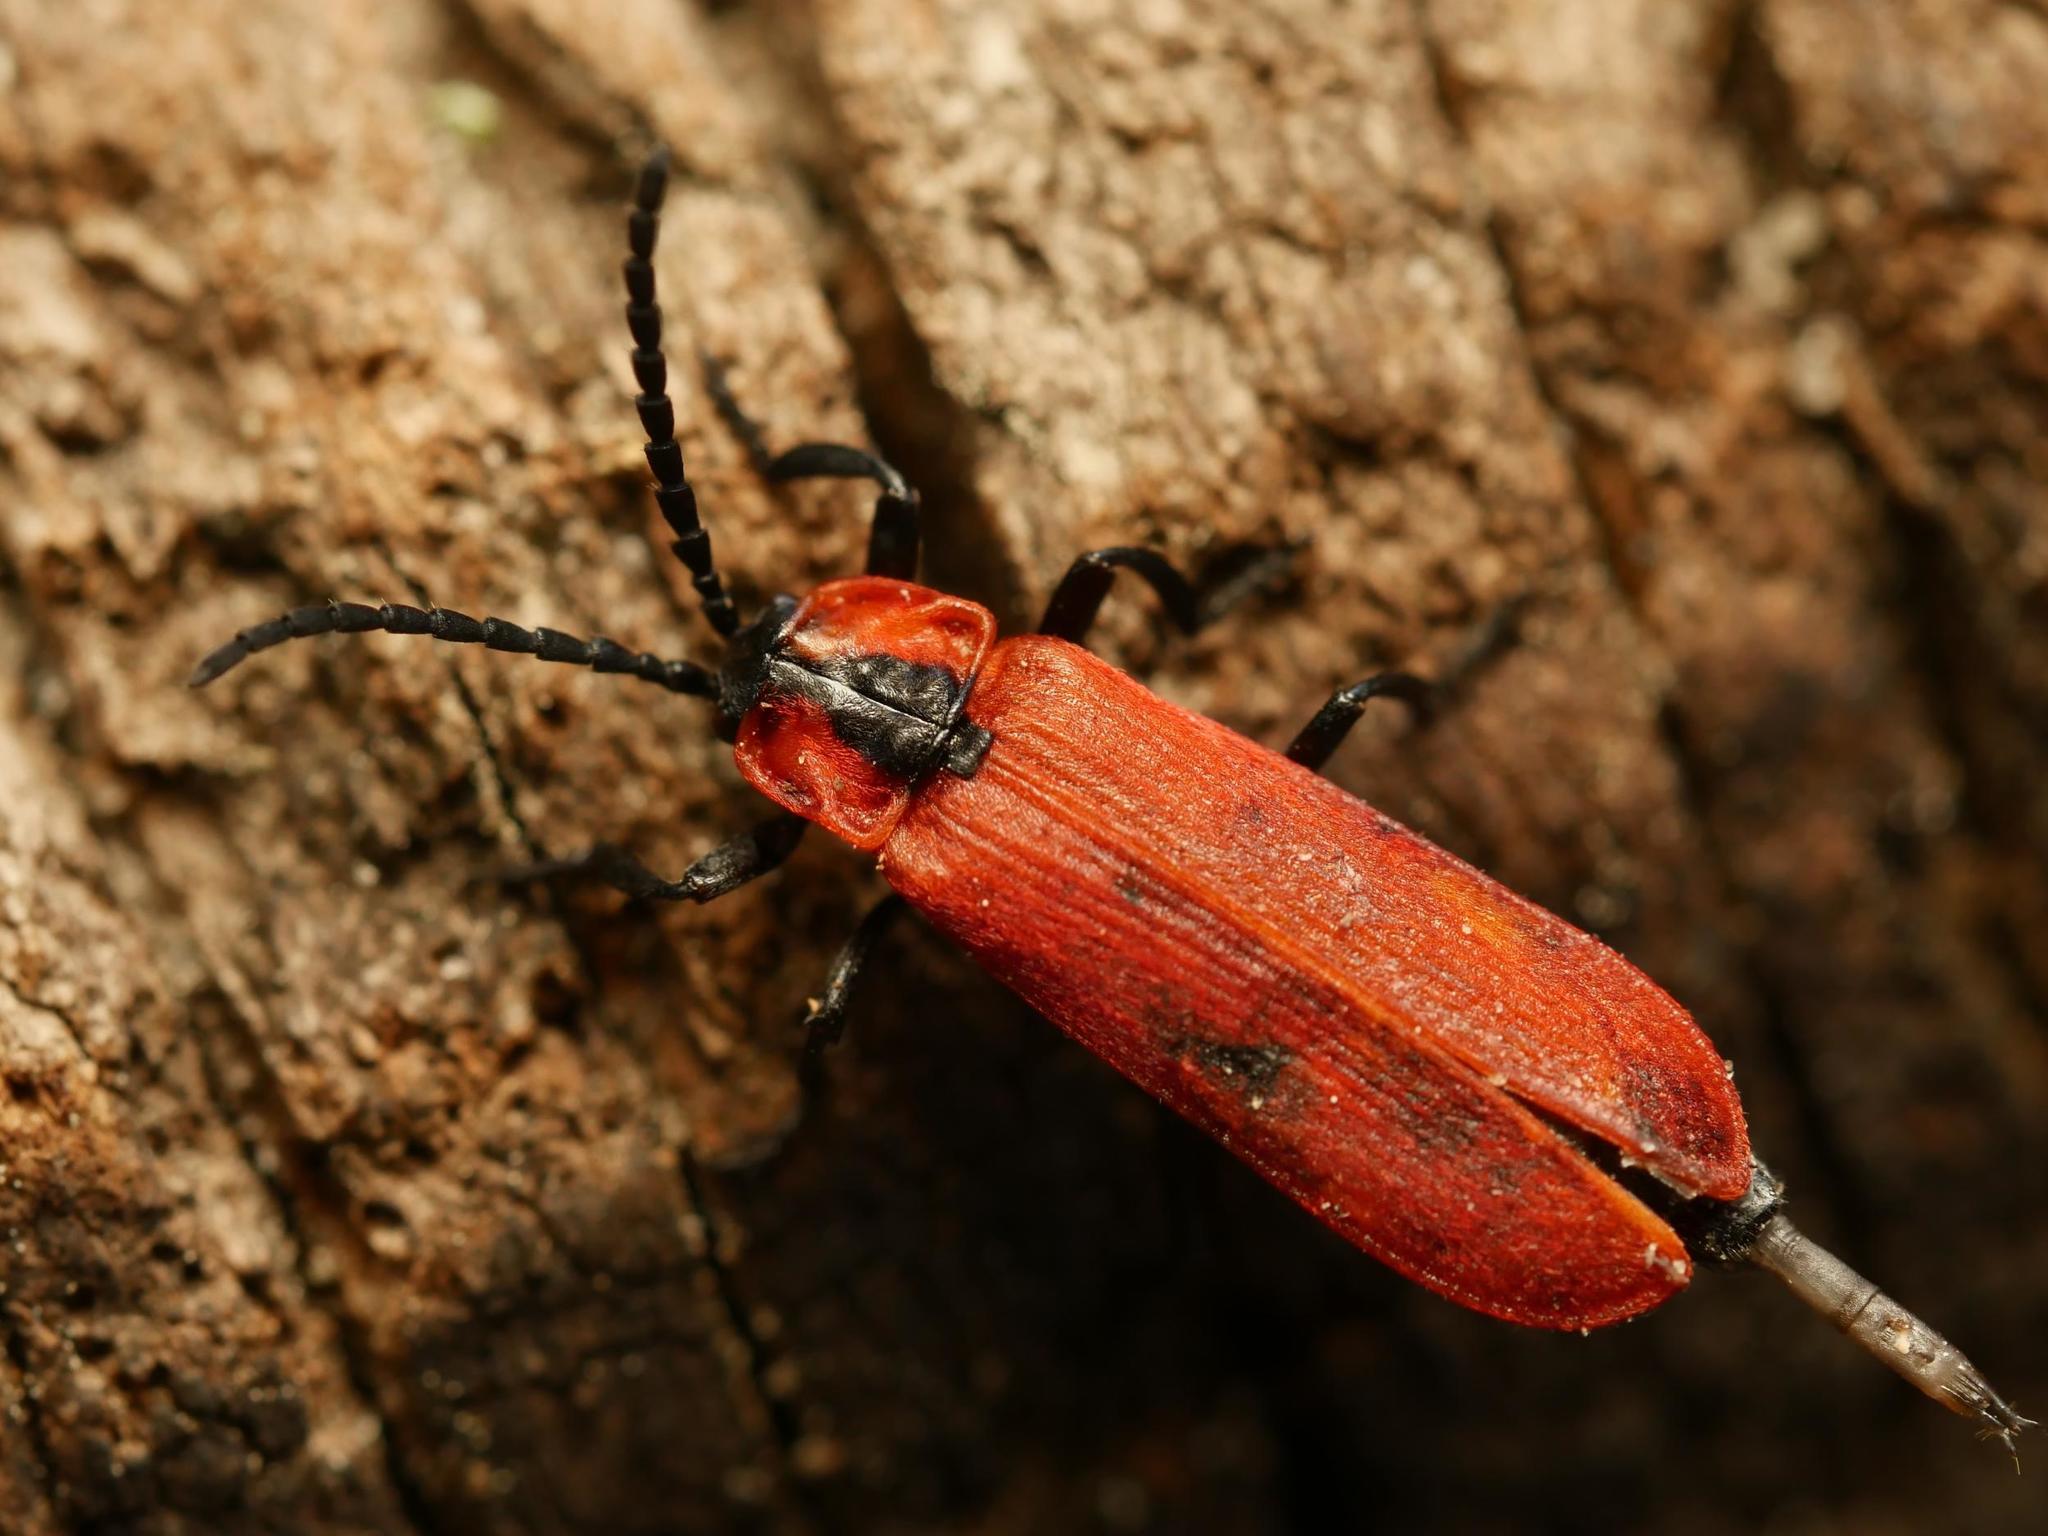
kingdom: Animalia
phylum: Arthropoda
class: Insecta
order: Coleoptera
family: Lycidae
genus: Lygistopterus
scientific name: Lygistopterus sanguineus
